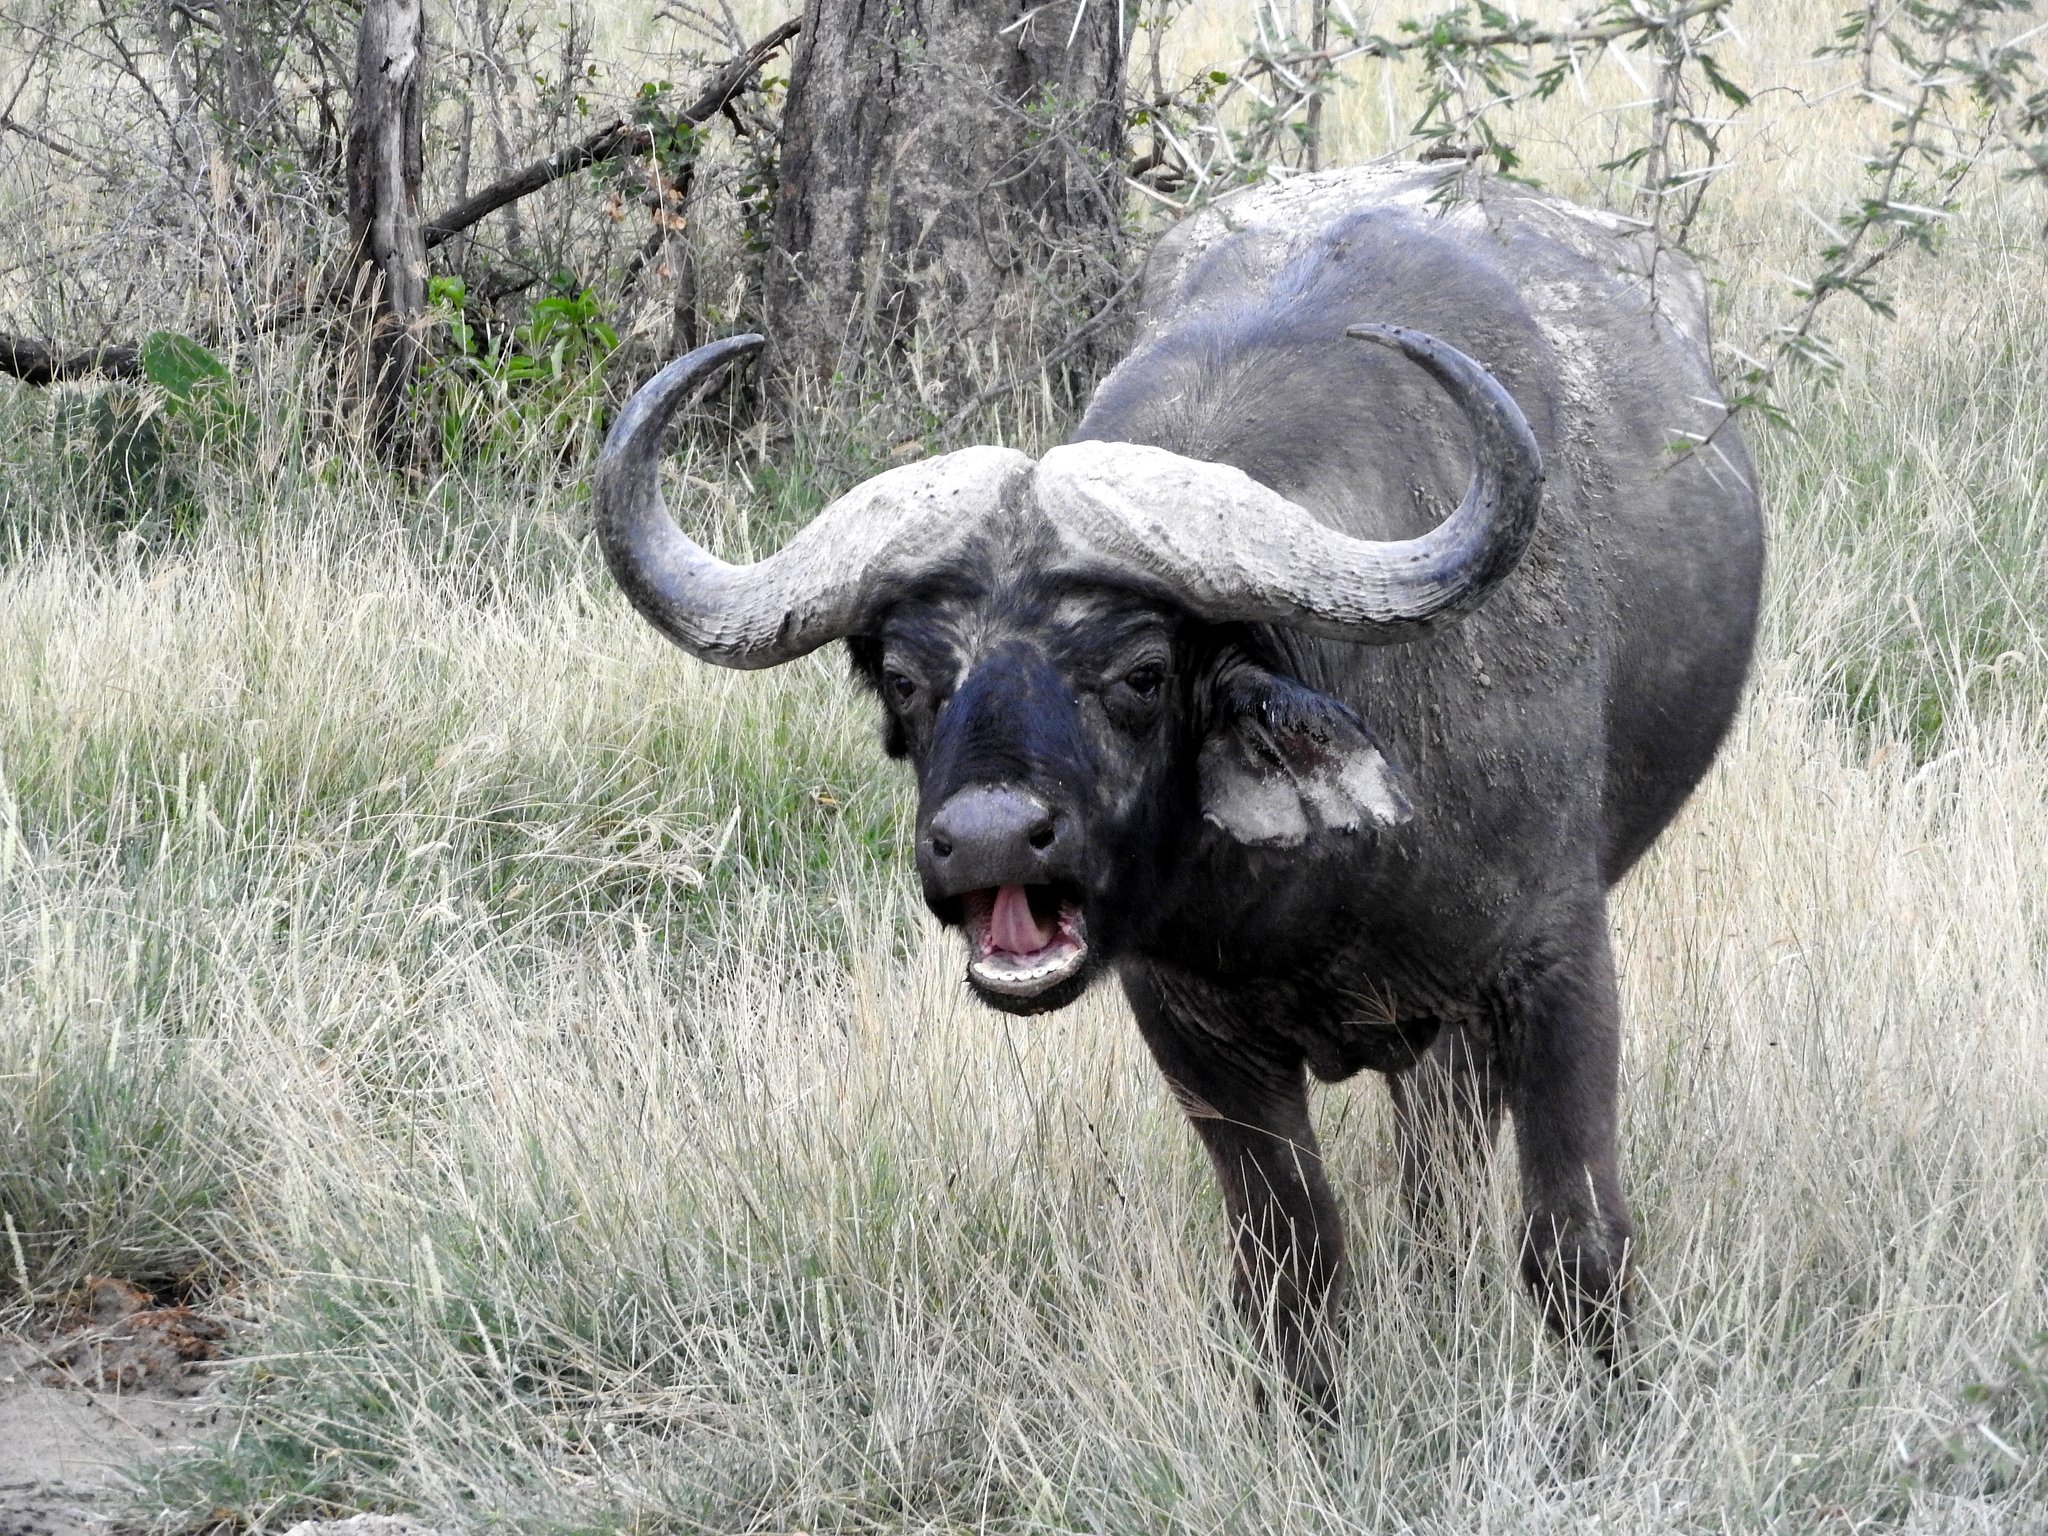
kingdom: Animalia
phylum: Chordata
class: Mammalia
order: Artiodactyla
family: Bovidae
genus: Syncerus
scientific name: Syncerus caffer
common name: African buffalo
